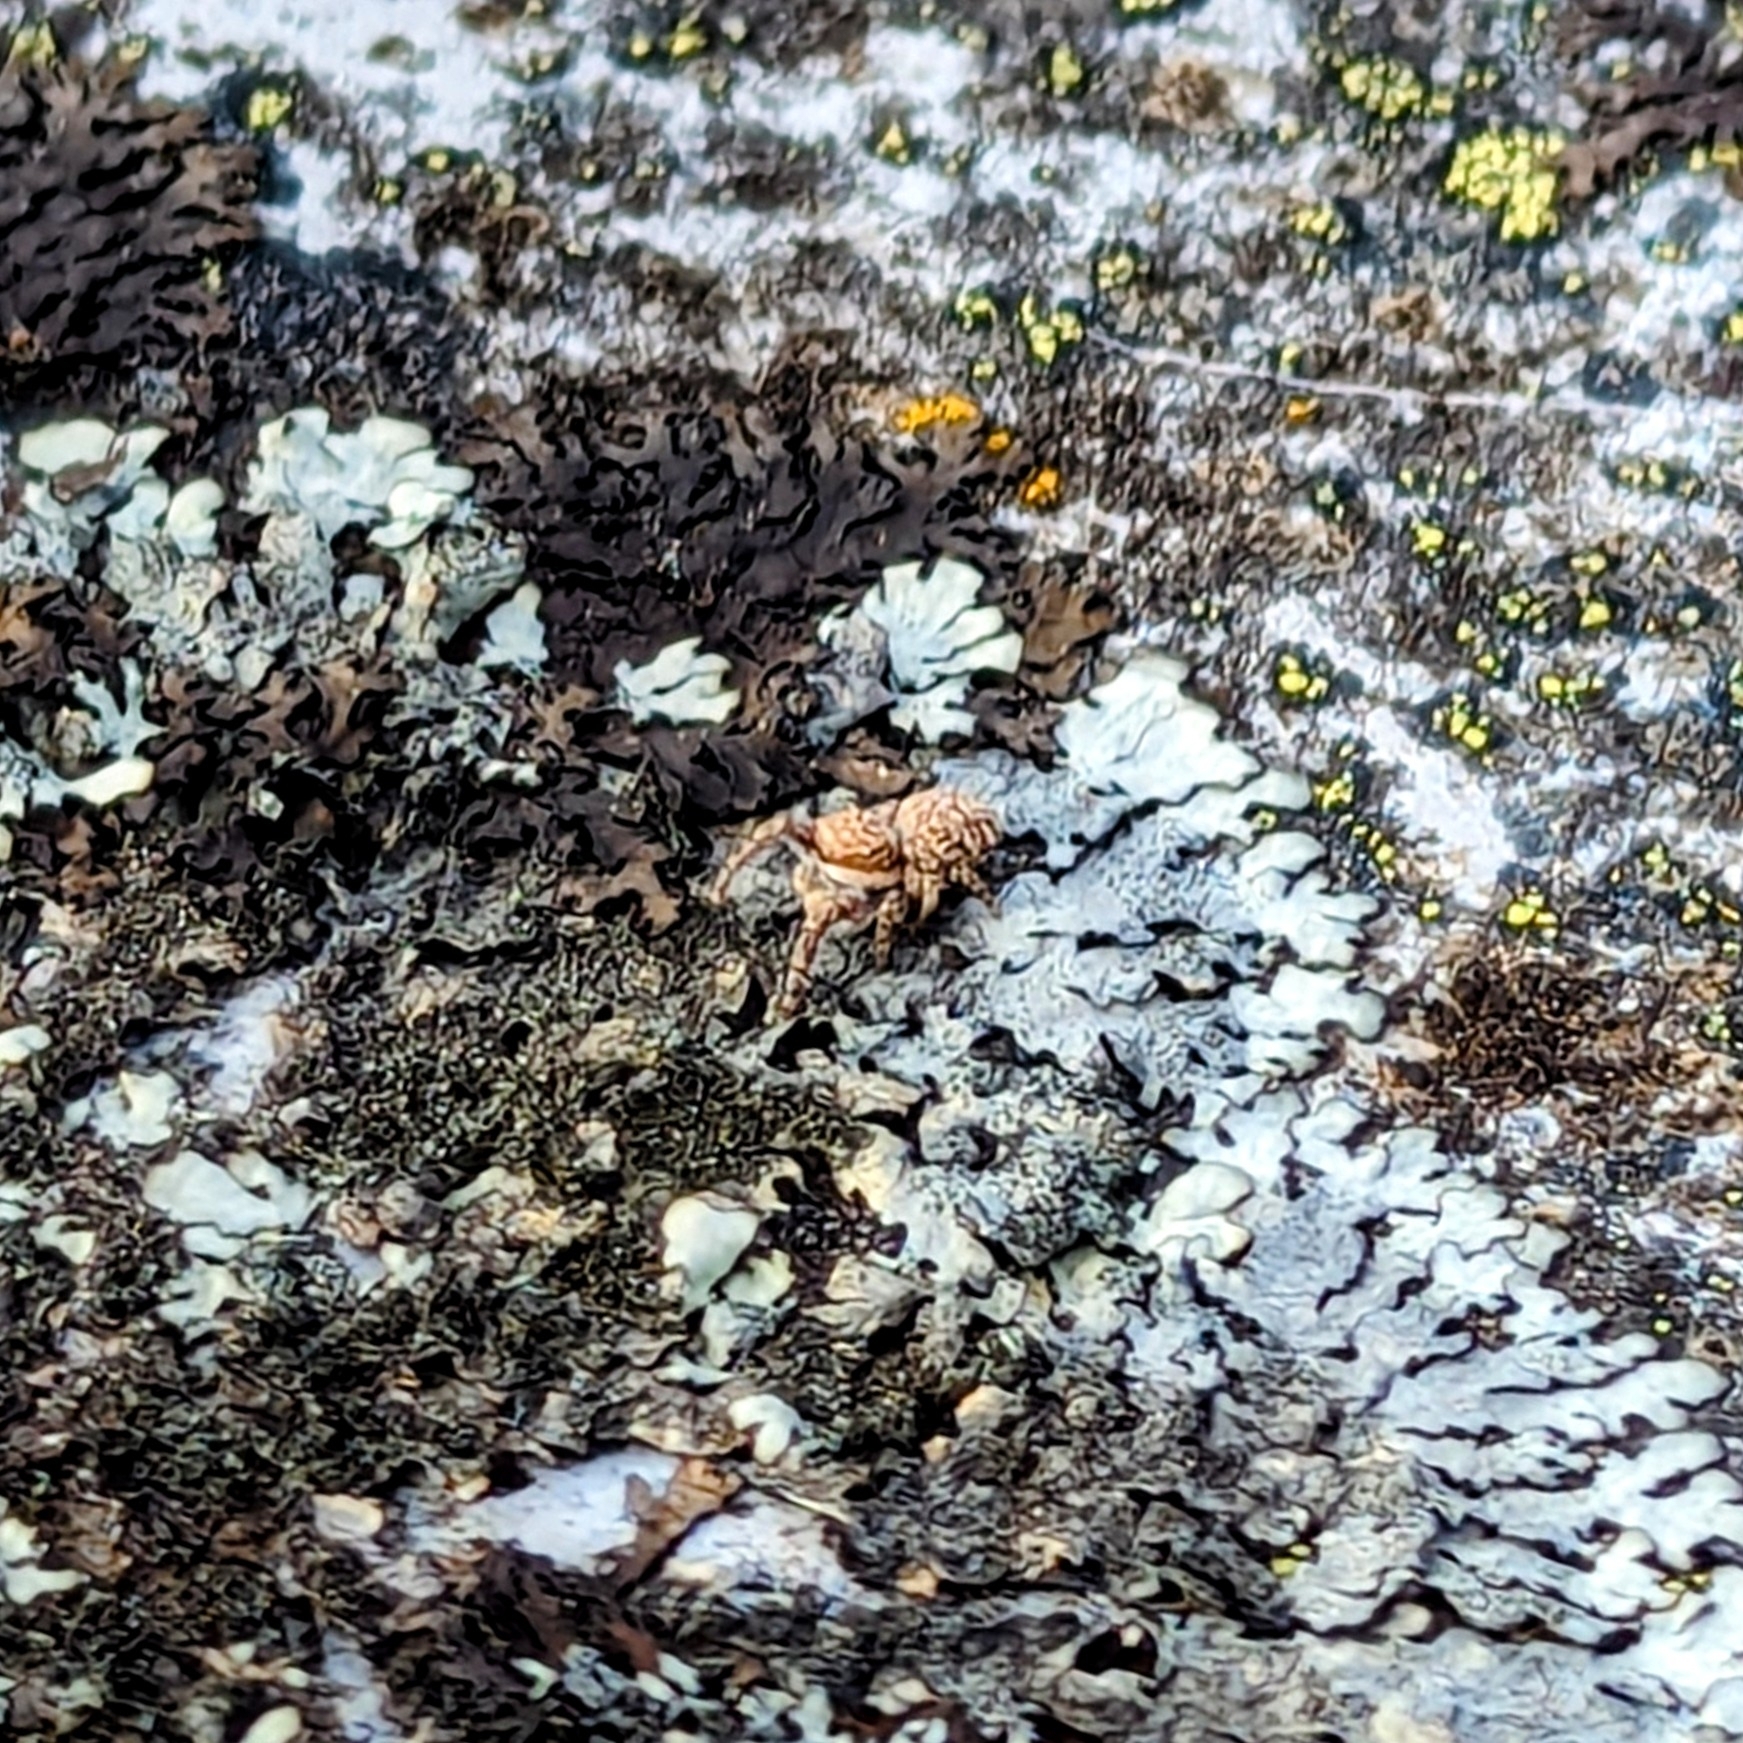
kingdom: Animalia
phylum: Arthropoda
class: Arachnida
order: Araneae
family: Salticidae
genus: Neaetha
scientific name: Neaetha membrosa
